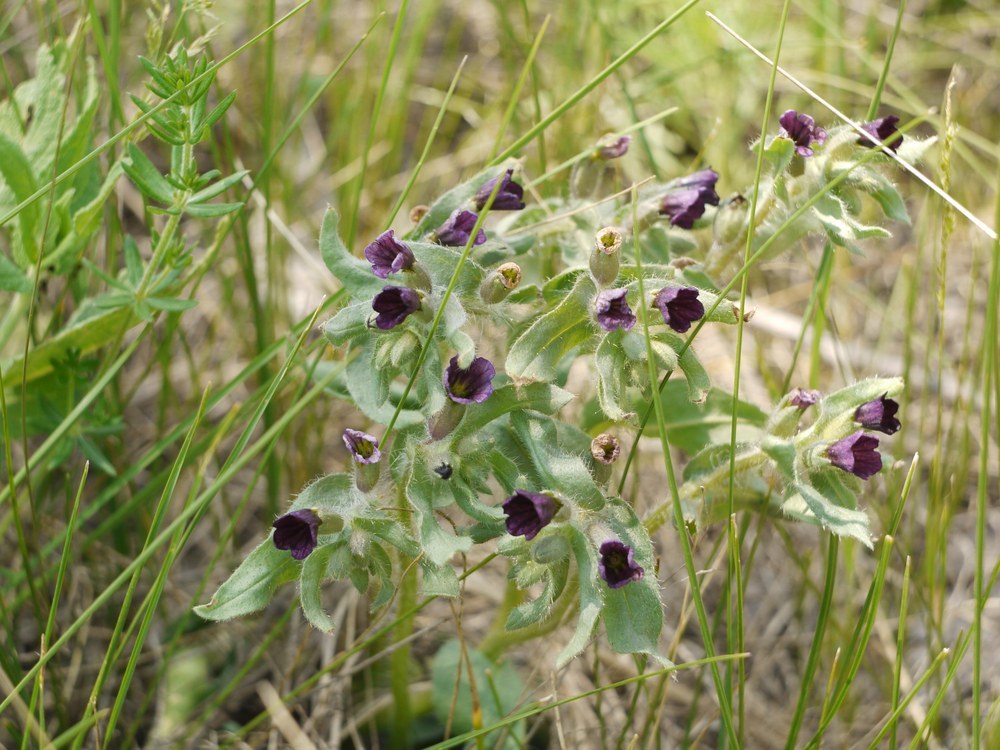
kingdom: Plantae
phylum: Tracheophyta
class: Magnoliopsida
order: Boraginales
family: Boraginaceae
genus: Nonea
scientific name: Nonea pulla
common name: Brown nonea
